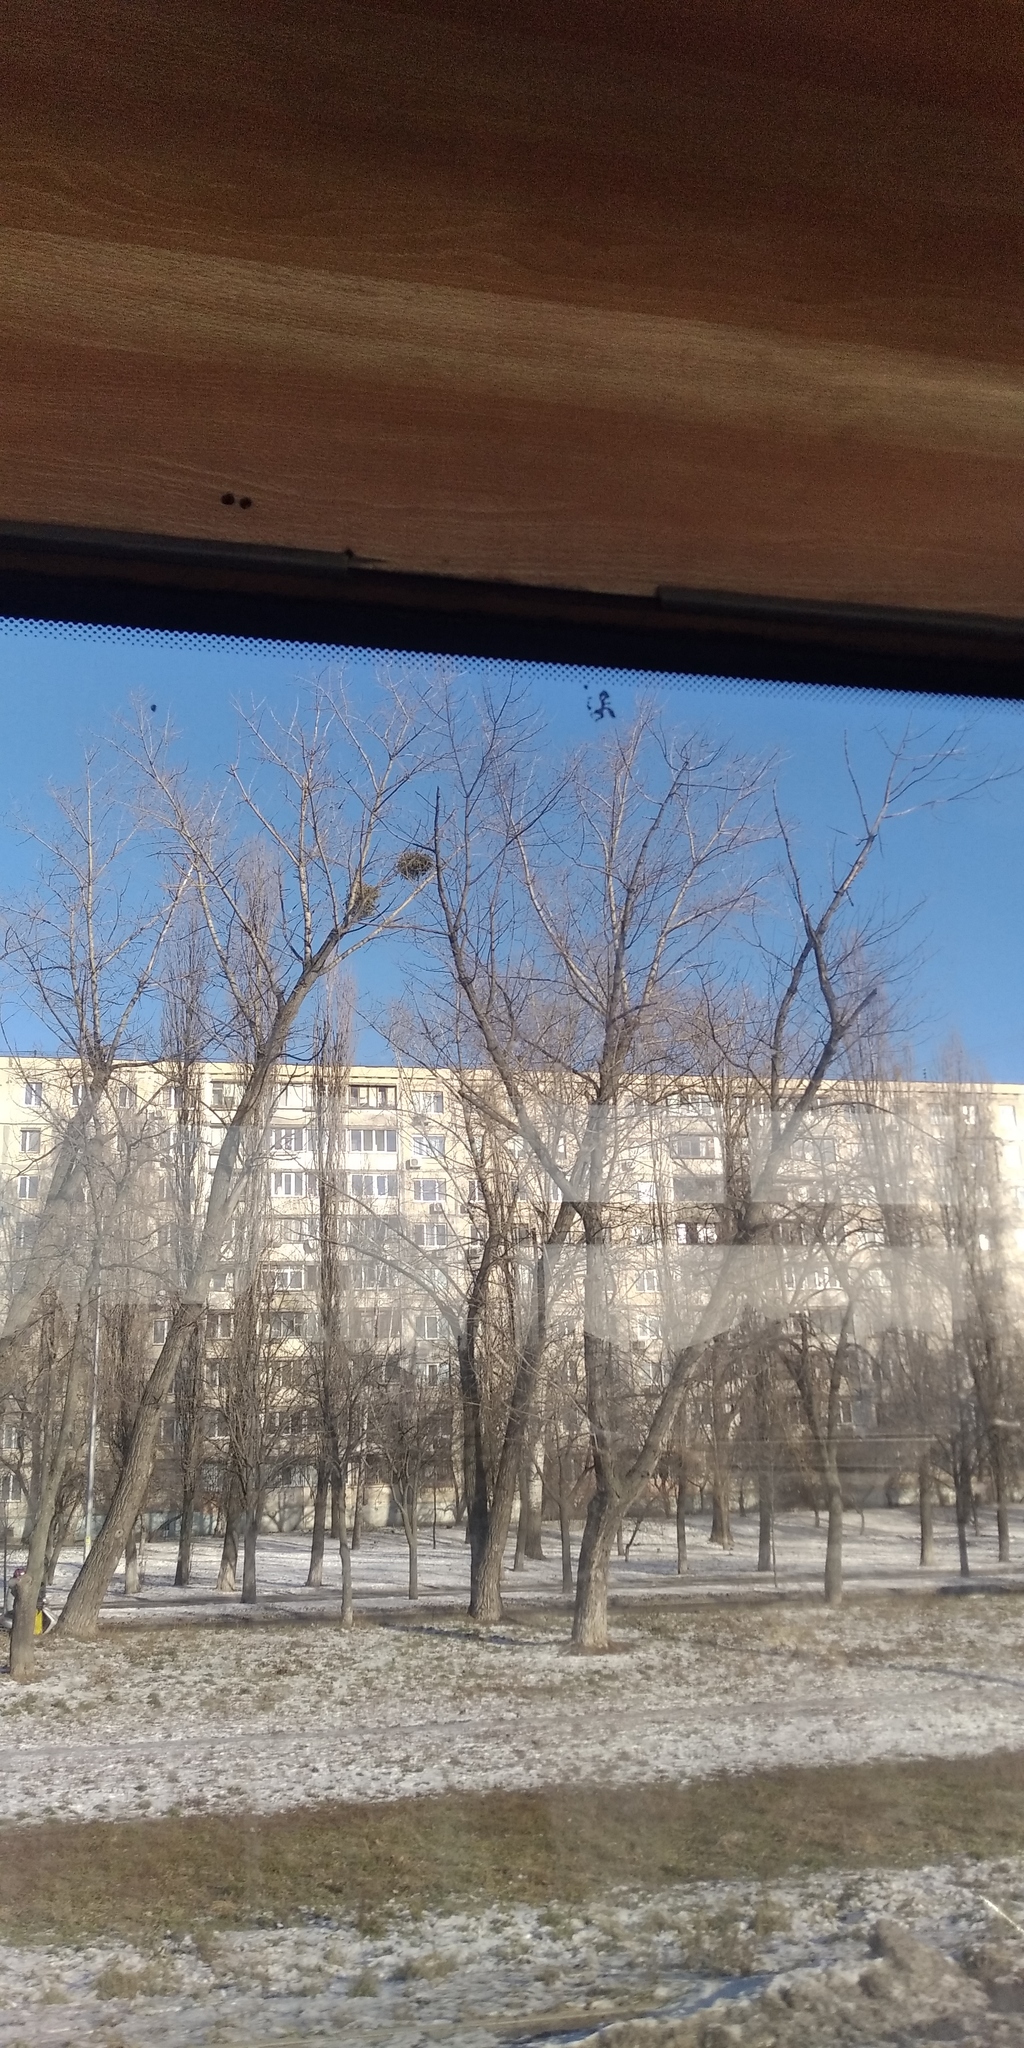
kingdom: Plantae
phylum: Tracheophyta
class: Magnoliopsida
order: Santalales
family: Viscaceae
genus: Viscum
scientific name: Viscum album
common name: Mistletoe
